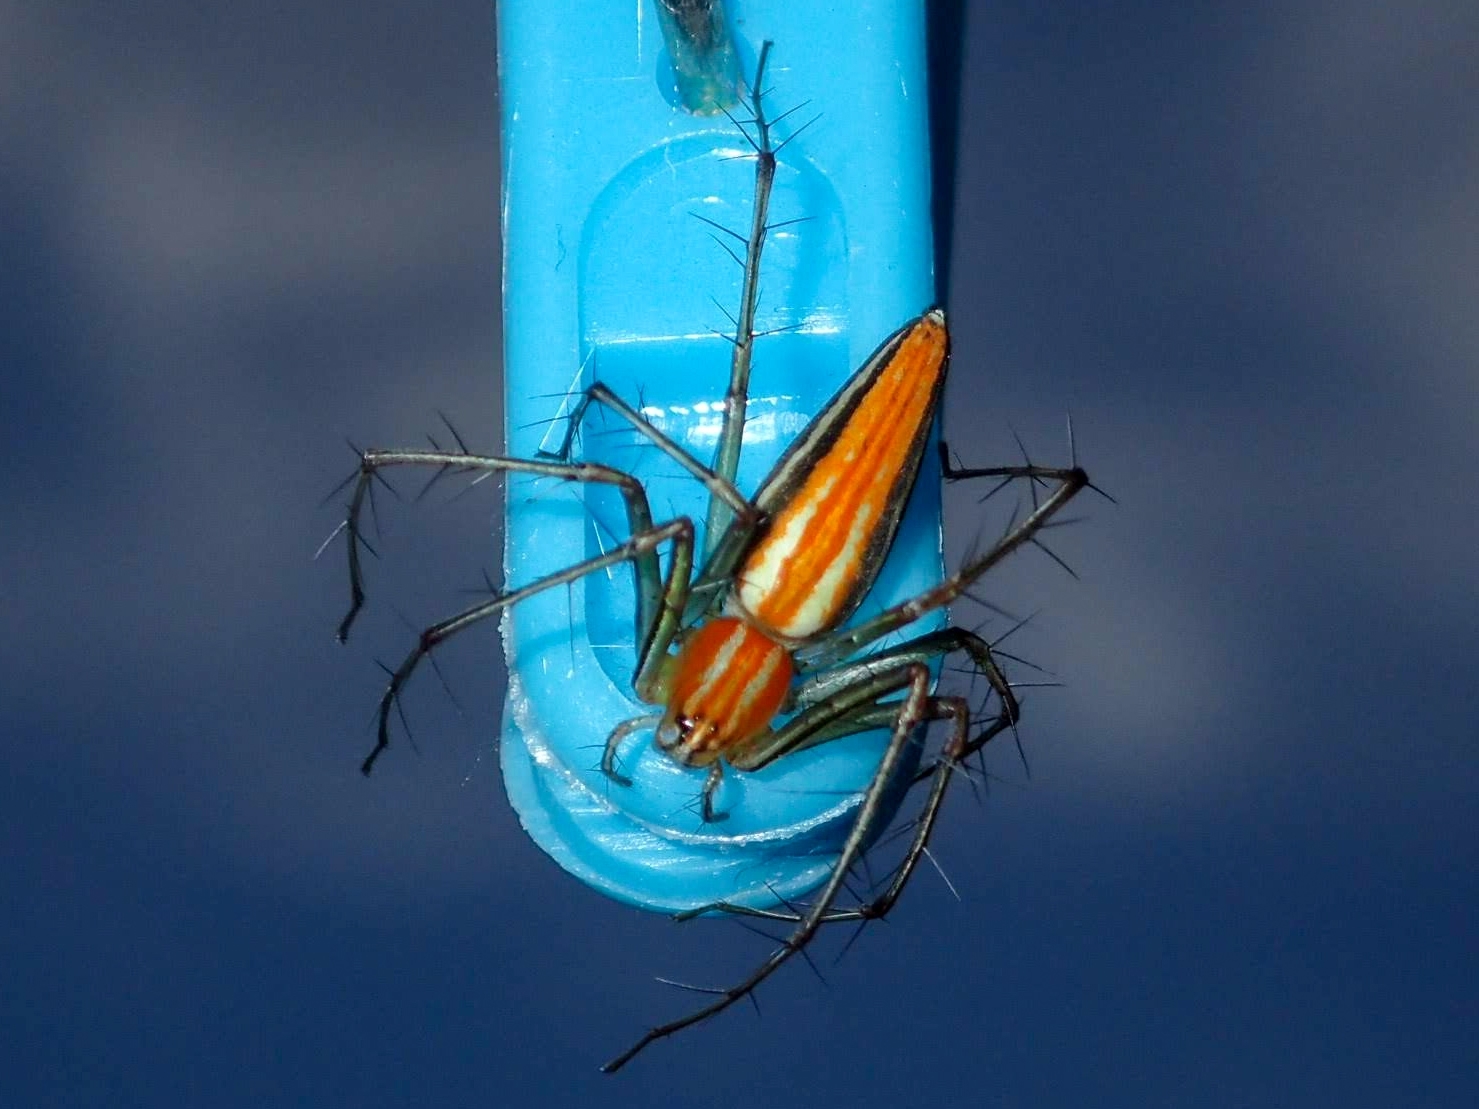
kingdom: Animalia
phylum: Arthropoda
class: Arachnida
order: Araneae
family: Oxyopidae
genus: Oxyopes
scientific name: Oxyopes macilentus
